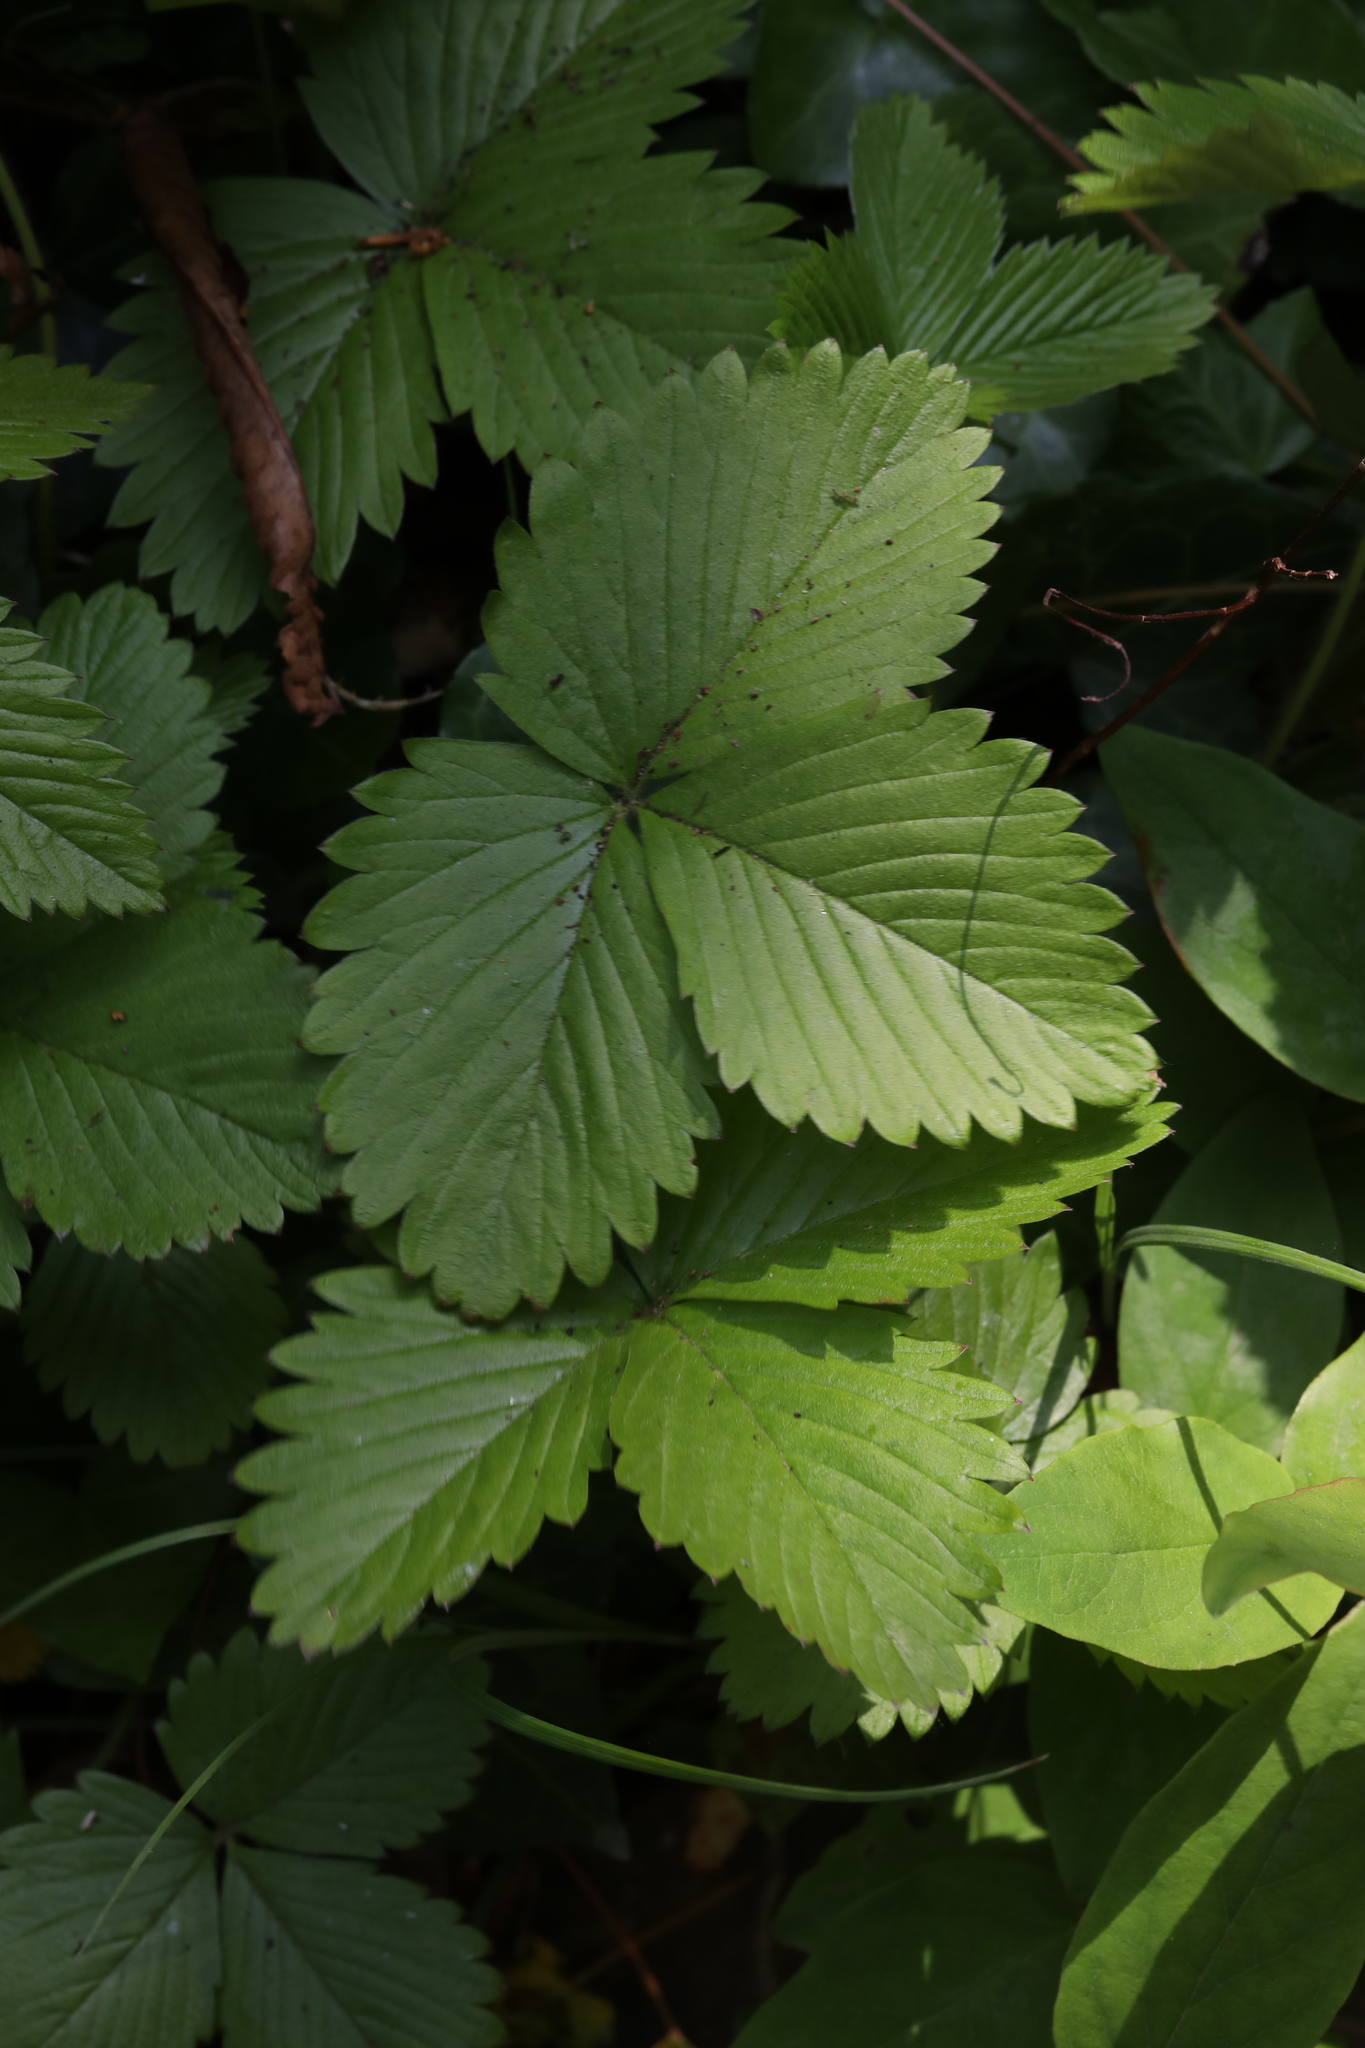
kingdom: Plantae
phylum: Tracheophyta
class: Magnoliopsida
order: Rosales
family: Rosaceae
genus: Fragaria
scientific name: Fragaria vesca
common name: Wild strawberry
